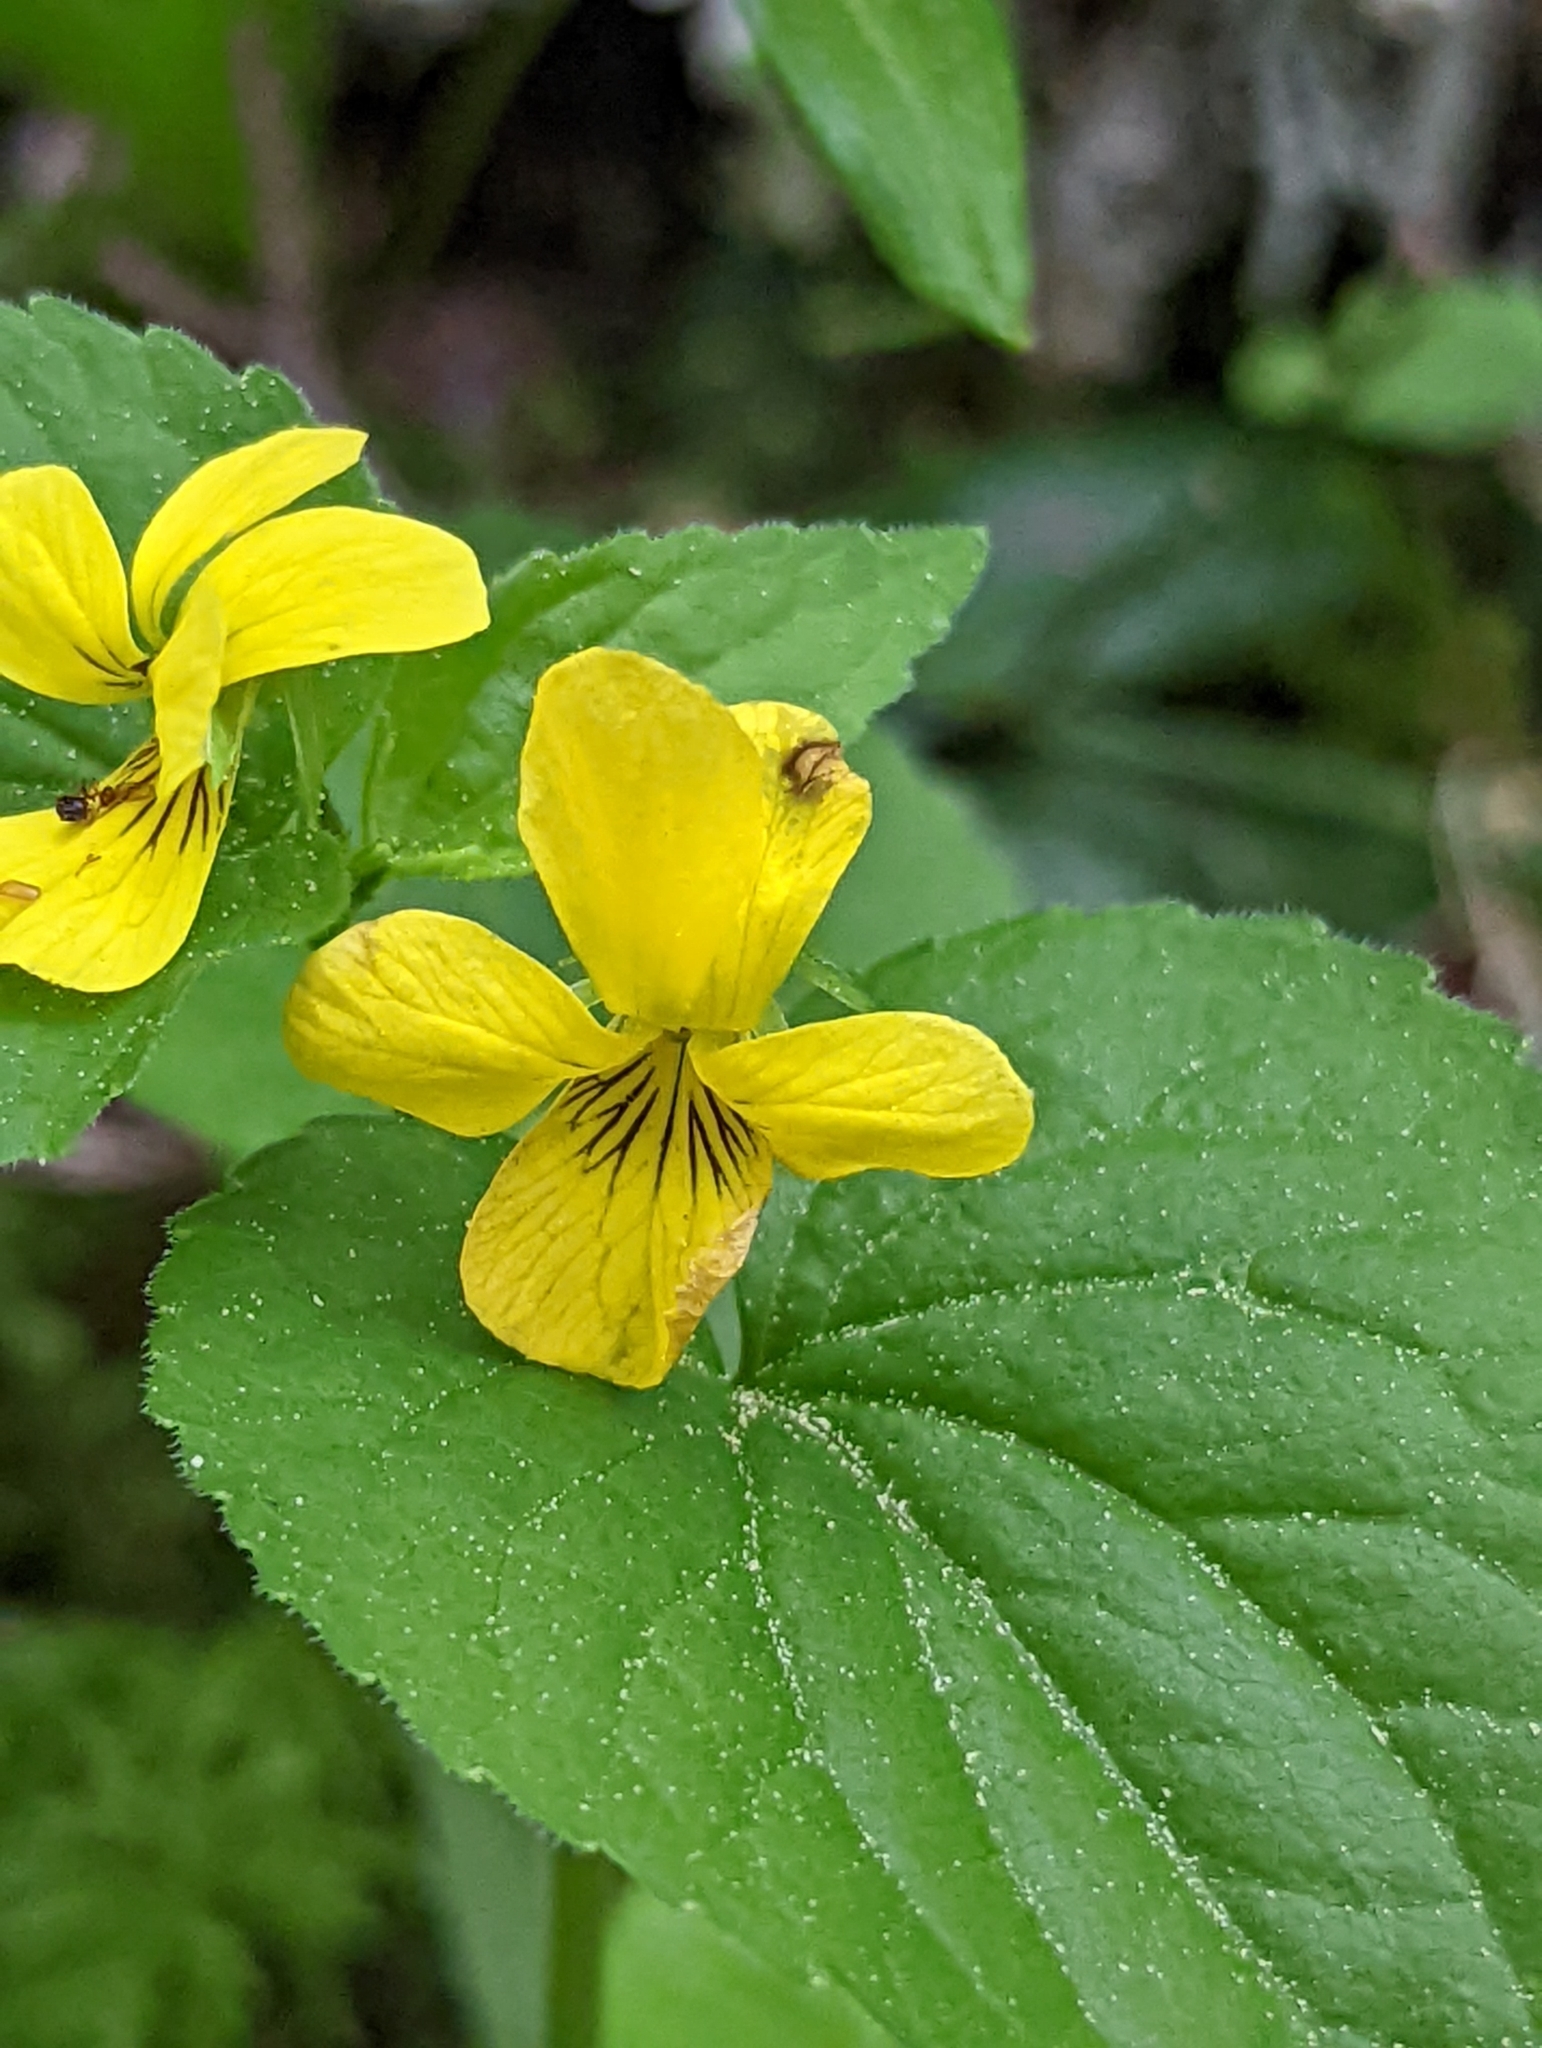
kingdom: Plantae
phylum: Tracheophyta
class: Magnoliopsida
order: Malpighiales
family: Violaceae
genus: Viola
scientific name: Viola glabella
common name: Stream violet
